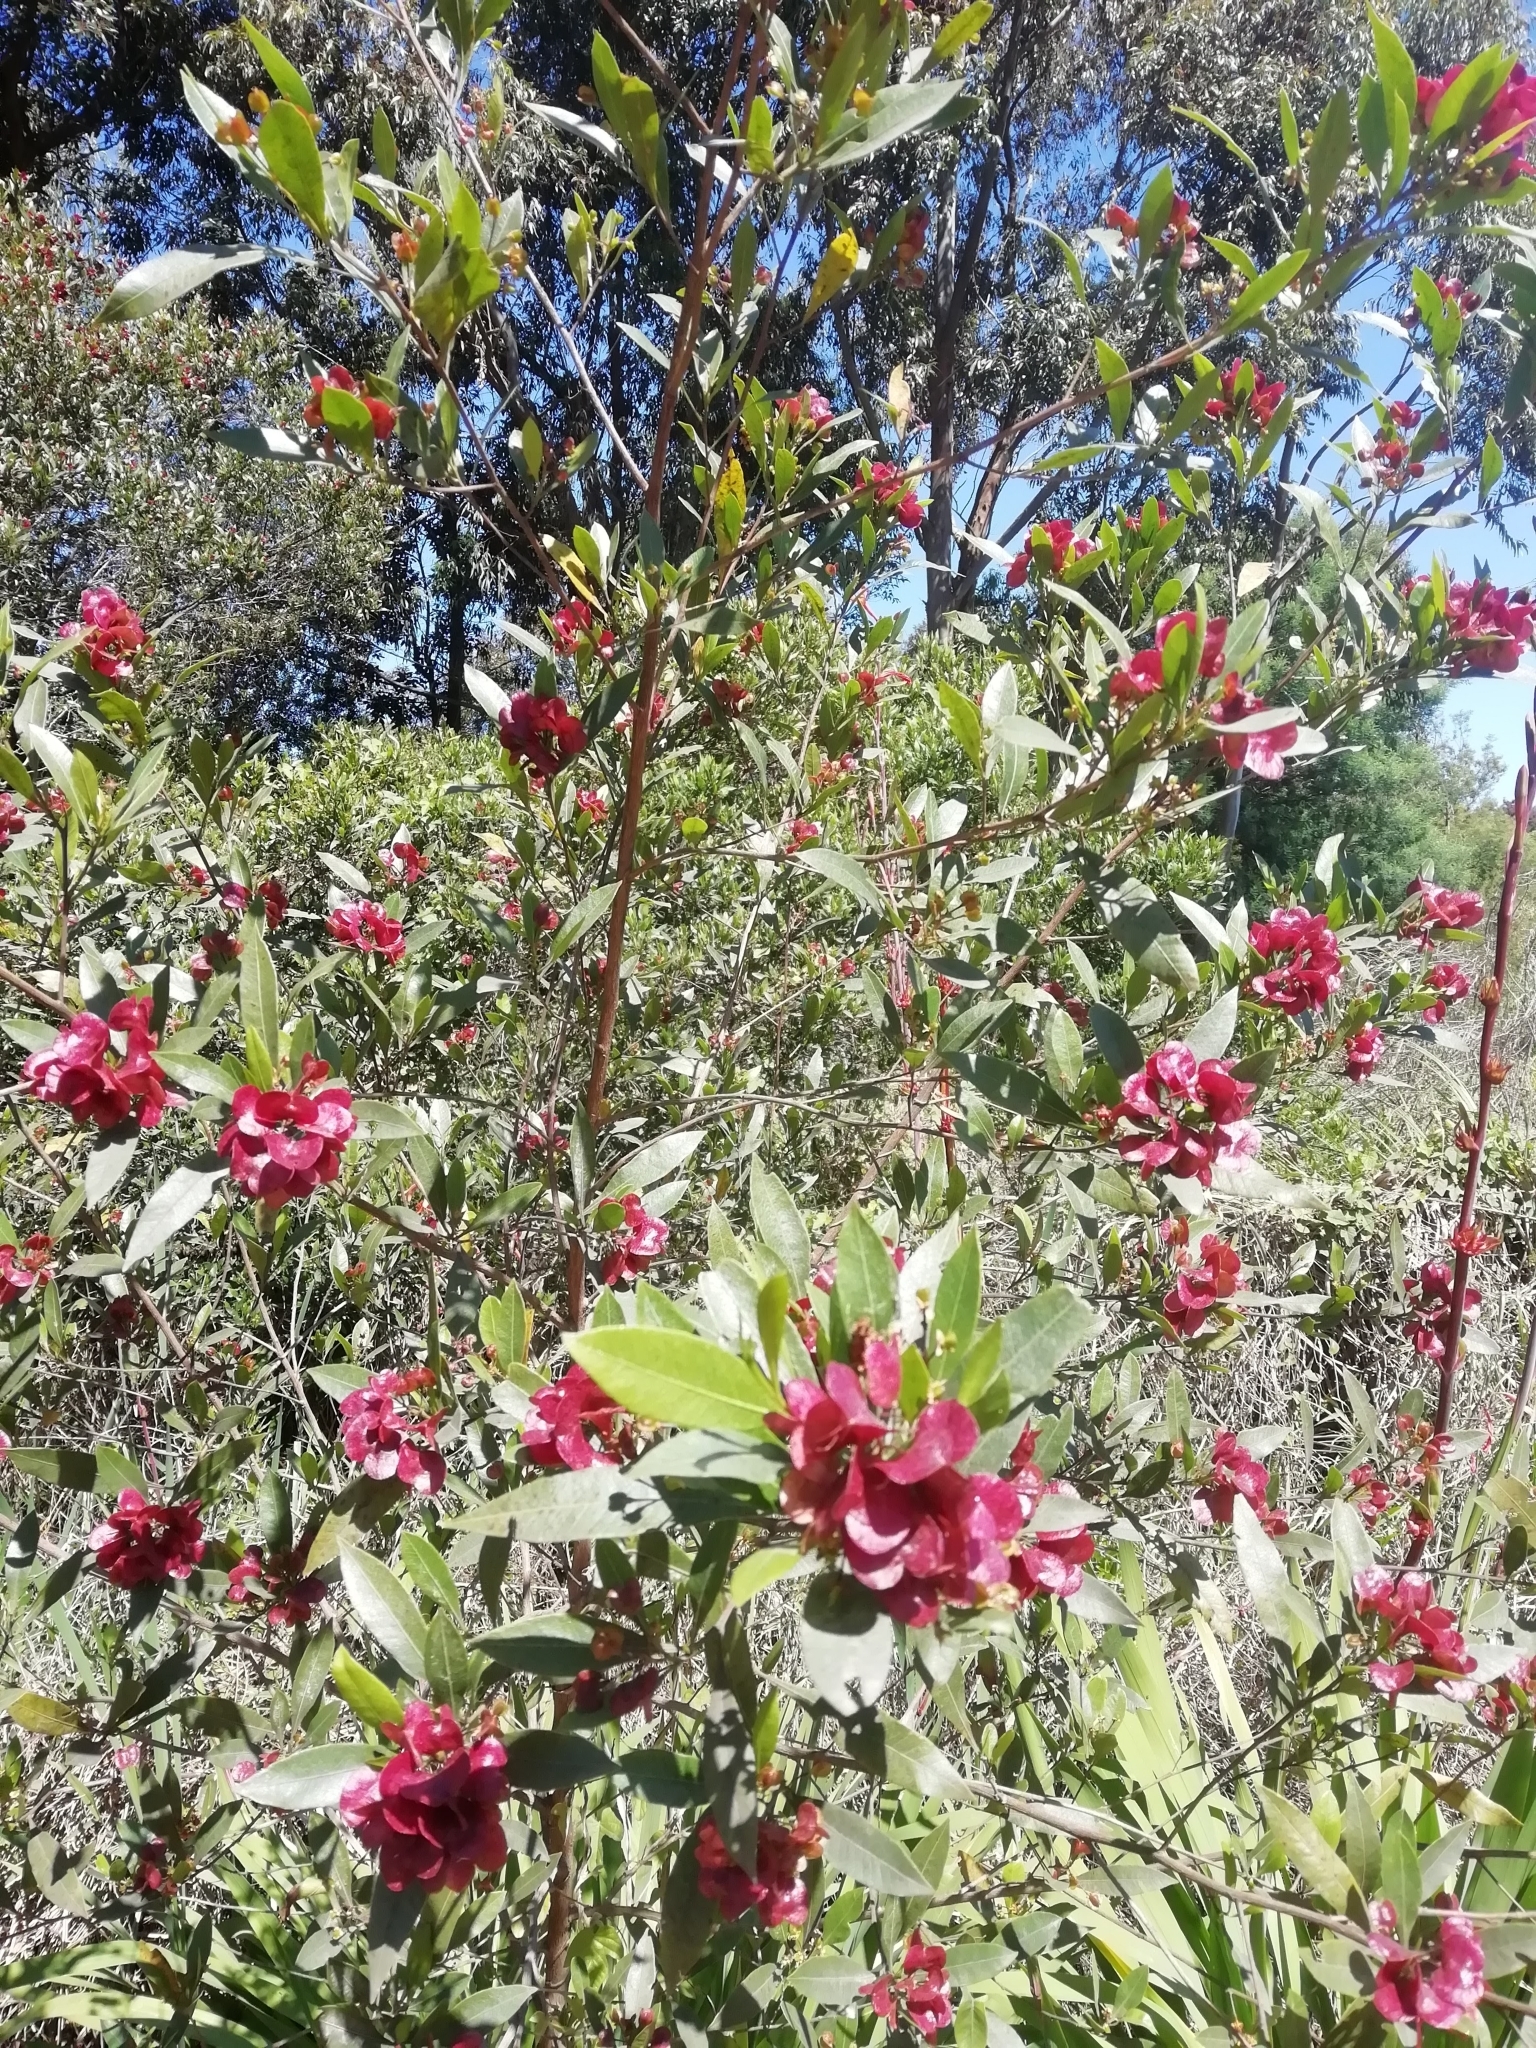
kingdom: Plantae
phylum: Tracheophyta
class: Magnoliopsida
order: Sapindales
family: Sapindaceae
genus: Dodonaea
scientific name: Dodonaea viscosa
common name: Hopbush
